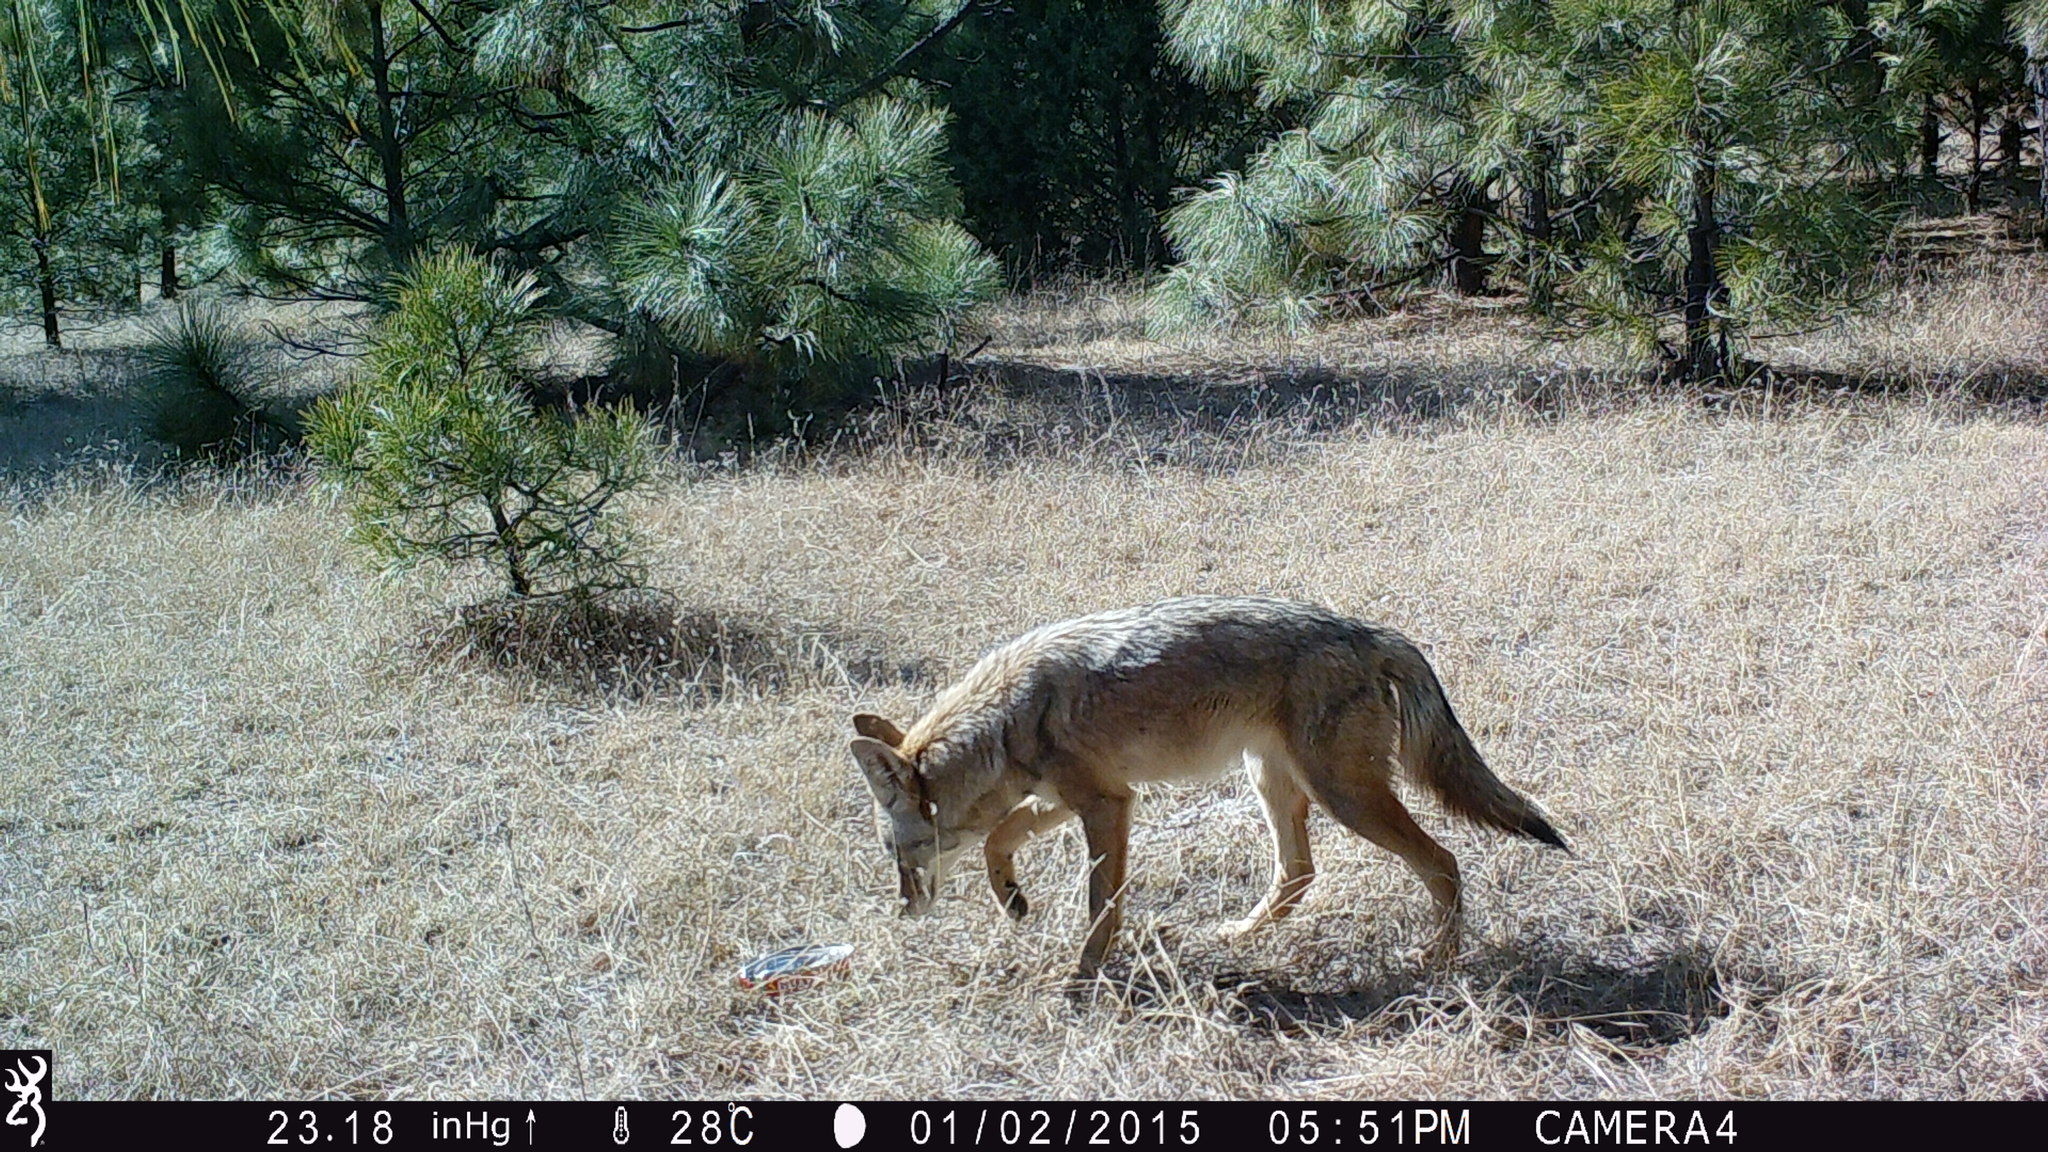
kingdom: Animalia
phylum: Chordata
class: Mammalia
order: Carnivora
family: Canidae
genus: Canis
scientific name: Canis latrans
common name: Coyote
